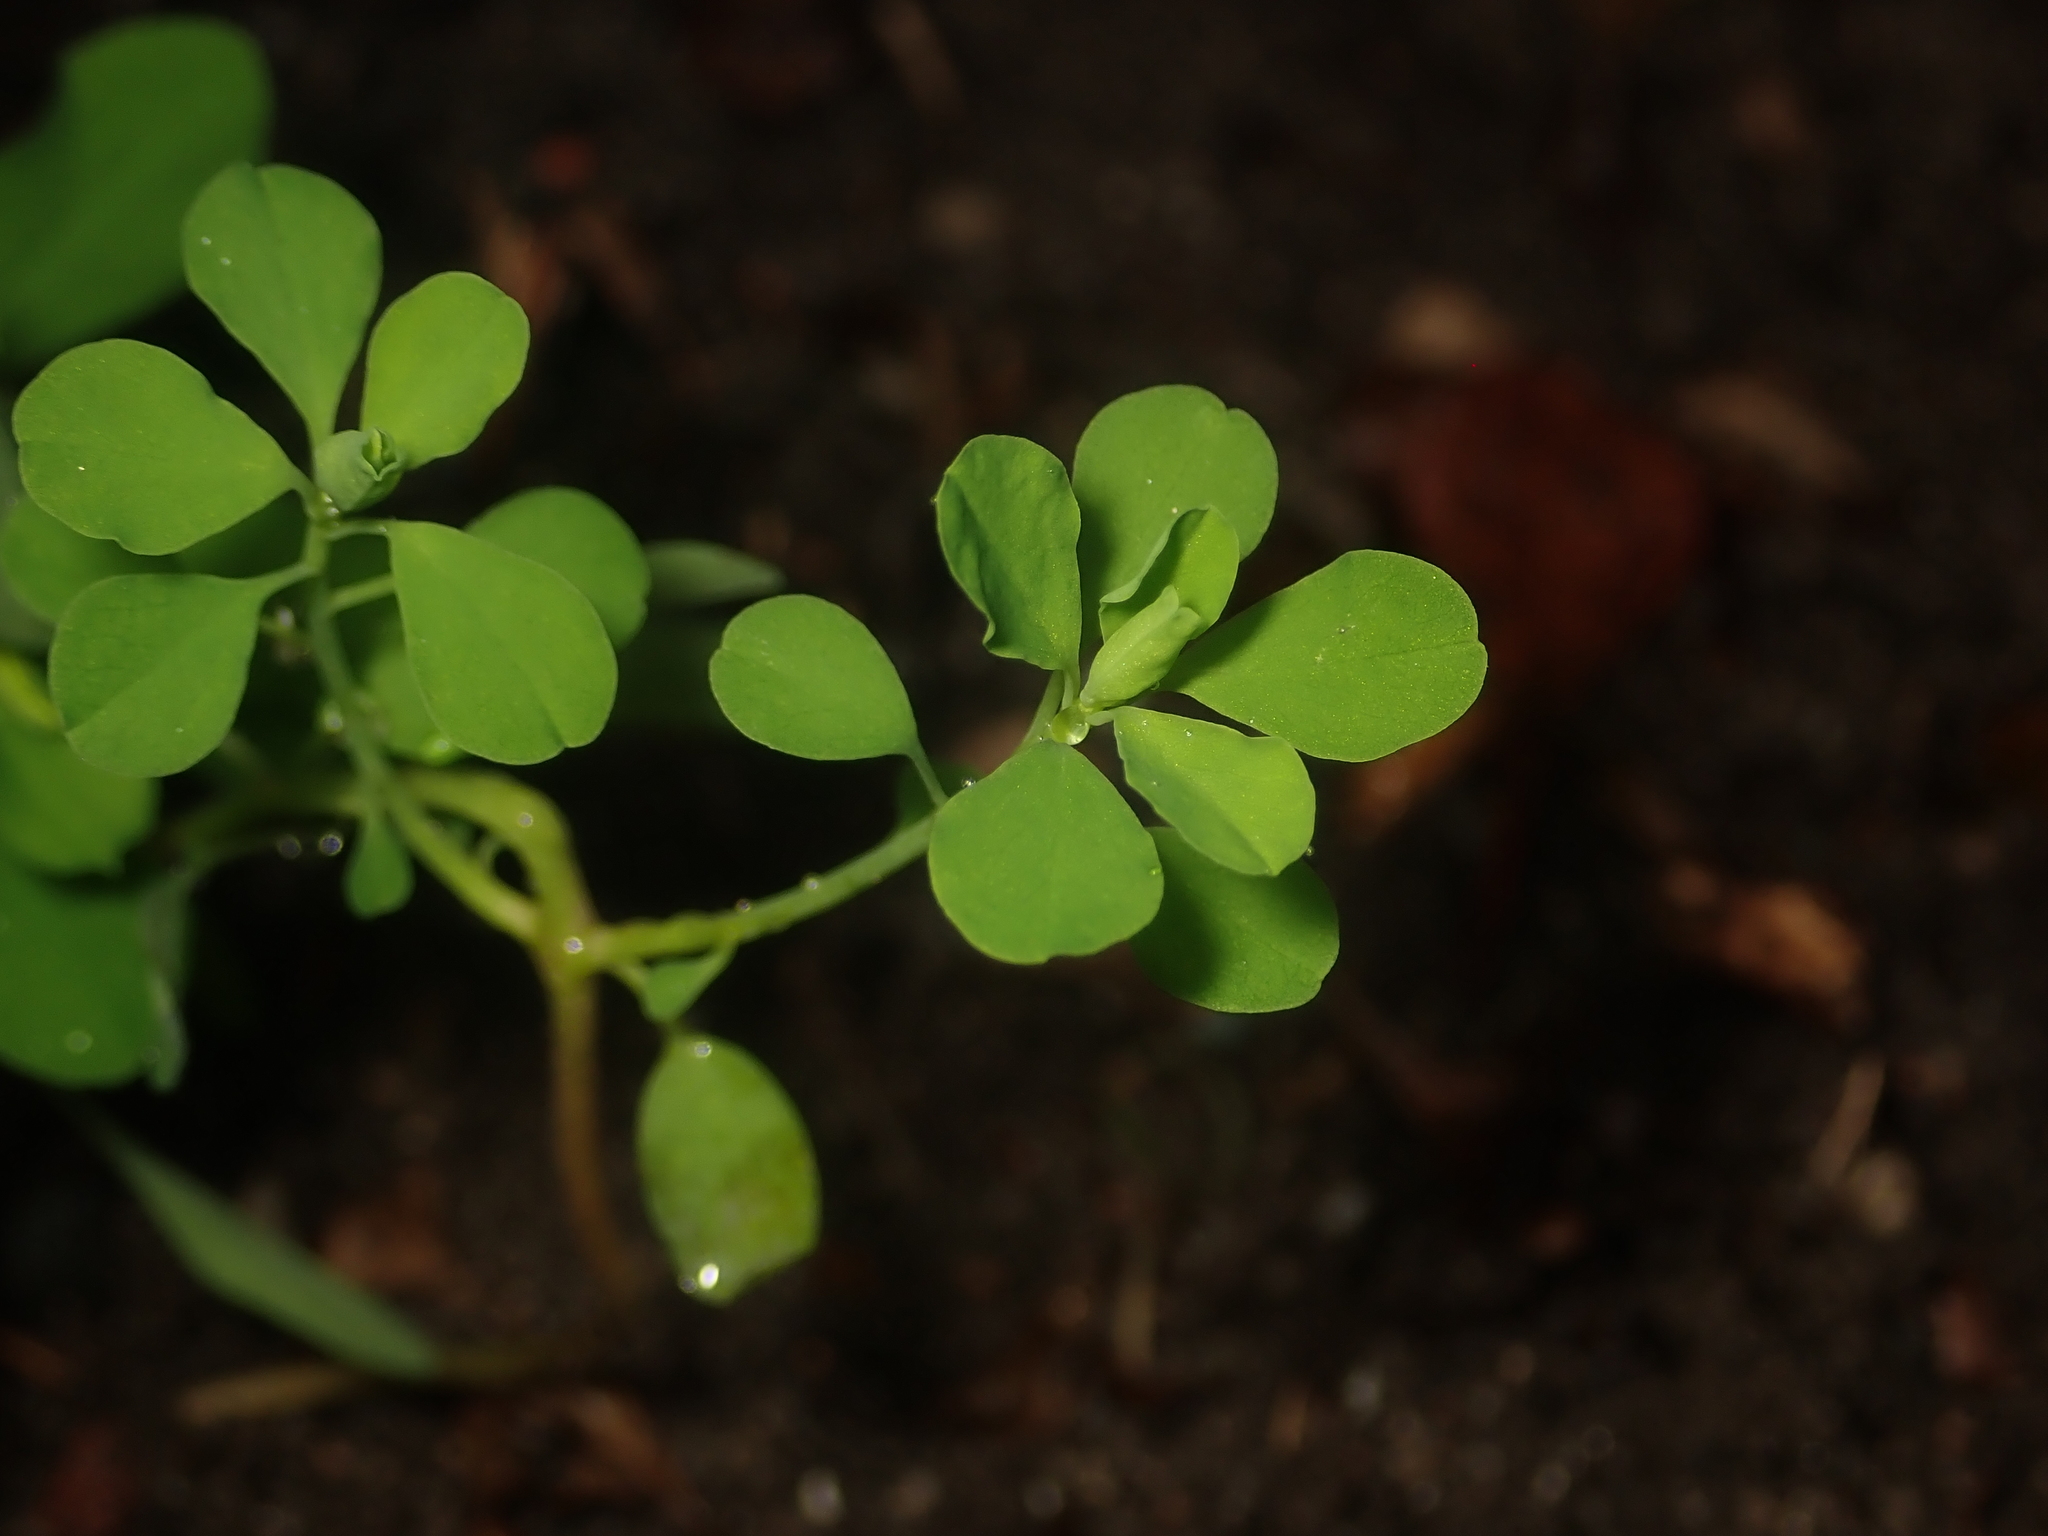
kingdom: Plantae
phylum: Tracheophyta
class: Magnoliopsida
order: Malpighiales
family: Euphorbiaceae
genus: Euphorbia
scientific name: Euphorbia peplus
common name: Petty spurge
